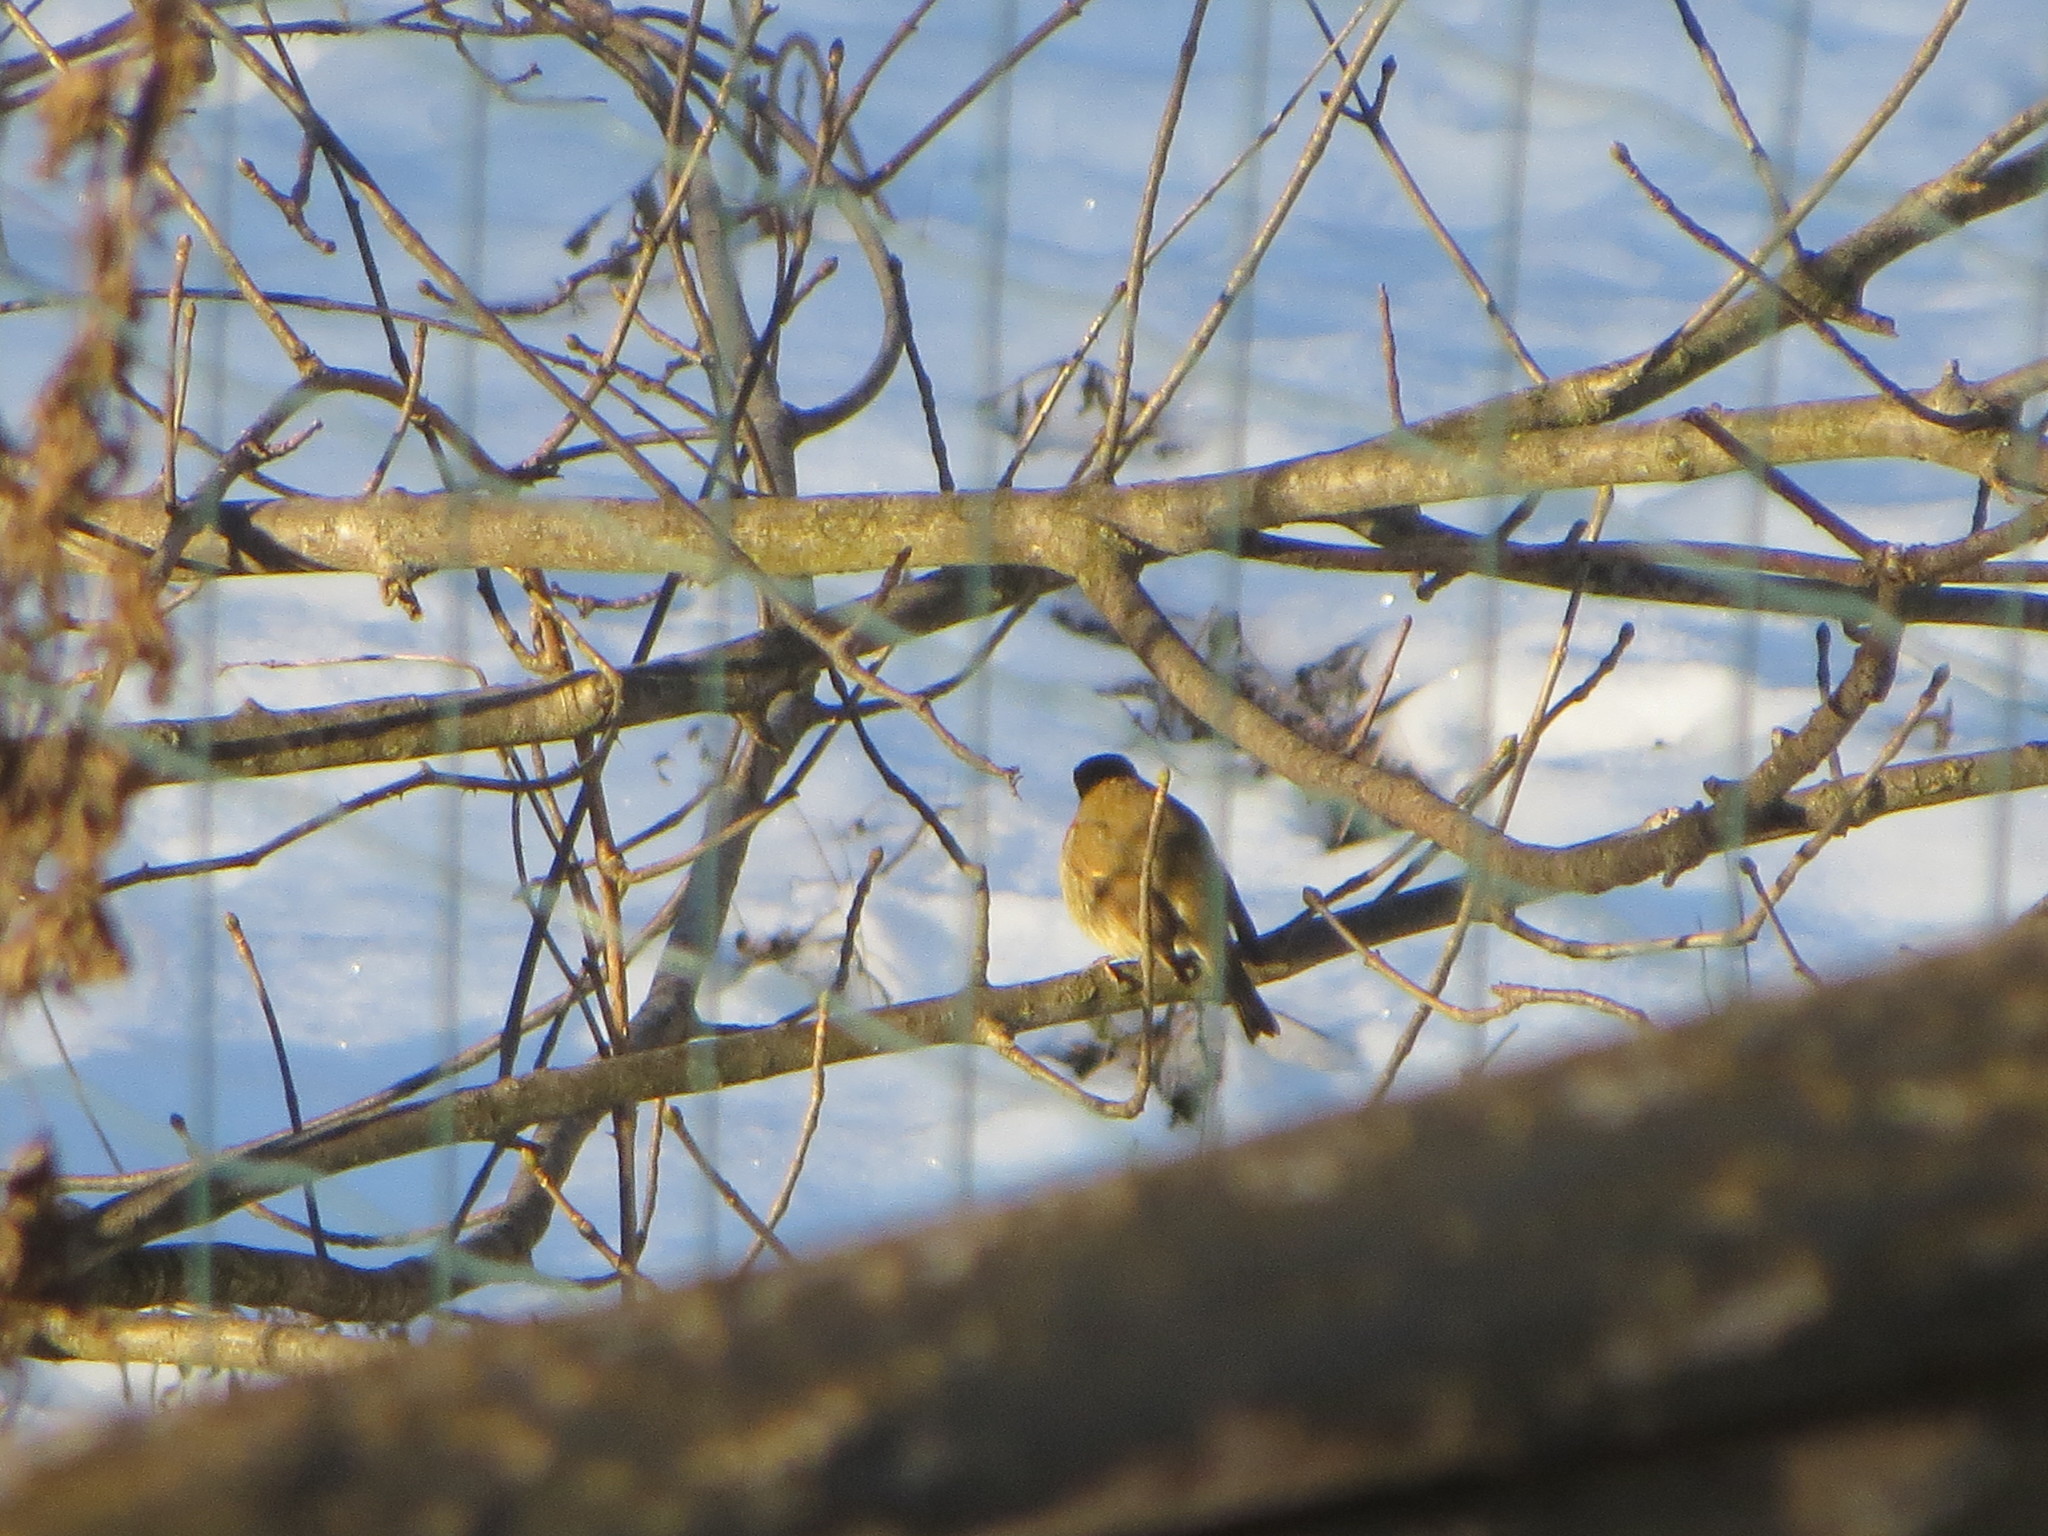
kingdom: Animalia
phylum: Chordata
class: Aves
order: Passeriformes
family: Muscicapidae
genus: Erithacus
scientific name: Erithacus rubecula
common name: European robin
